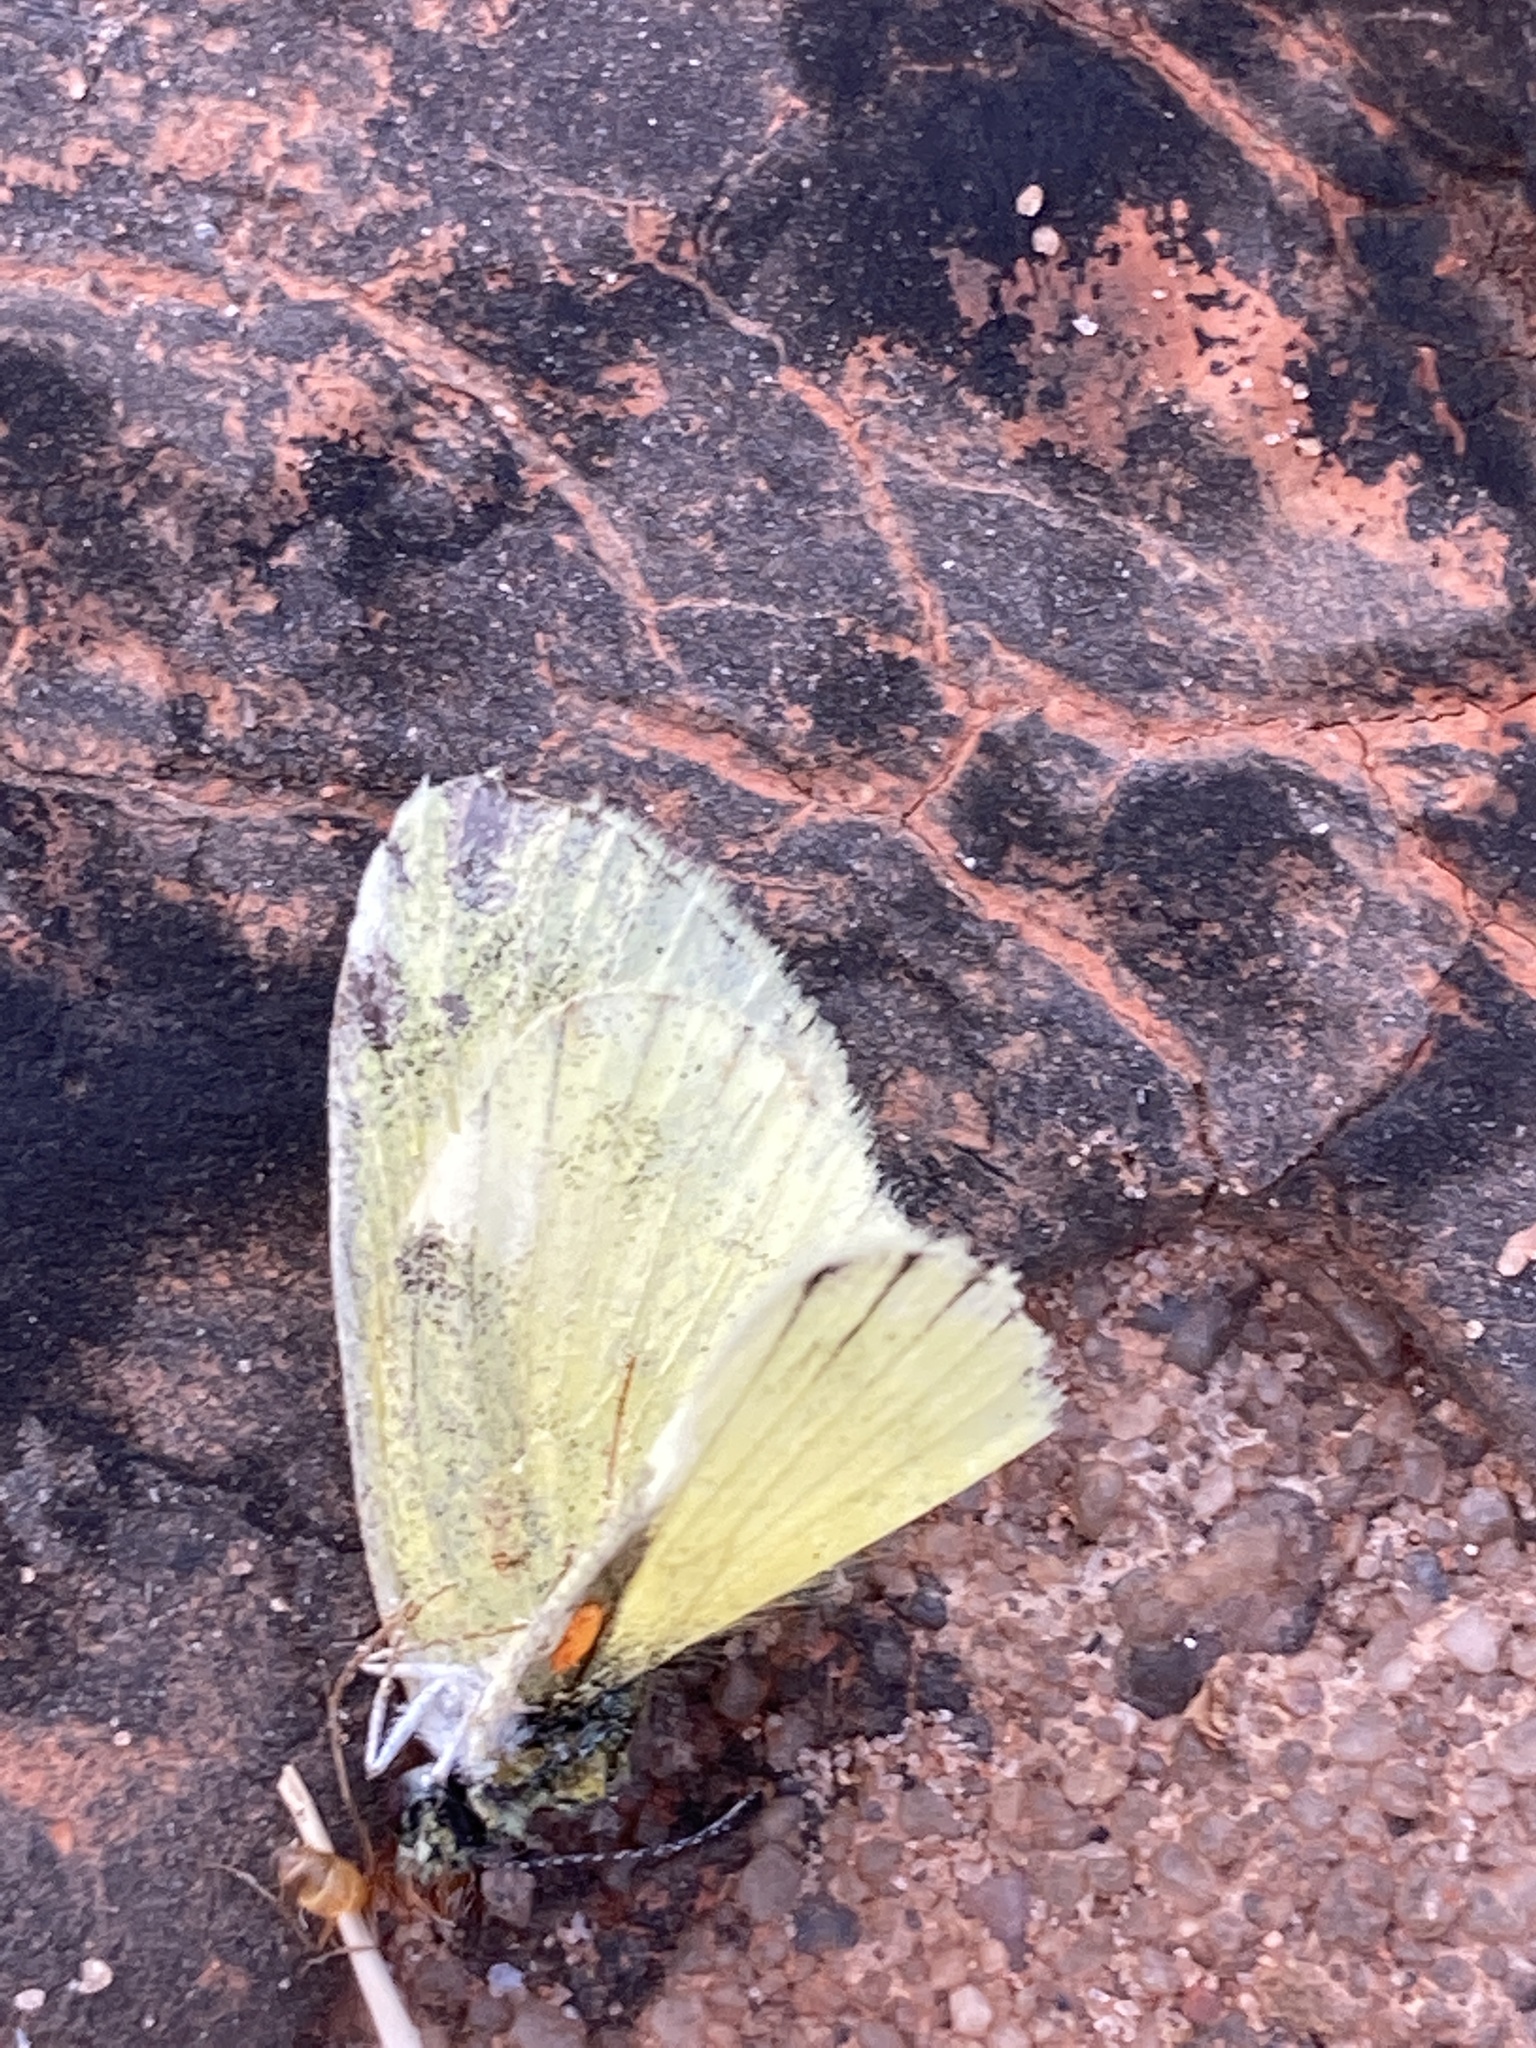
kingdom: Animalia
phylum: Arthropoda
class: Insecta
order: Lepidoptera
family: Pieridae
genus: Nathalis
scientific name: Nathalis iole
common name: Dainty sulphur
